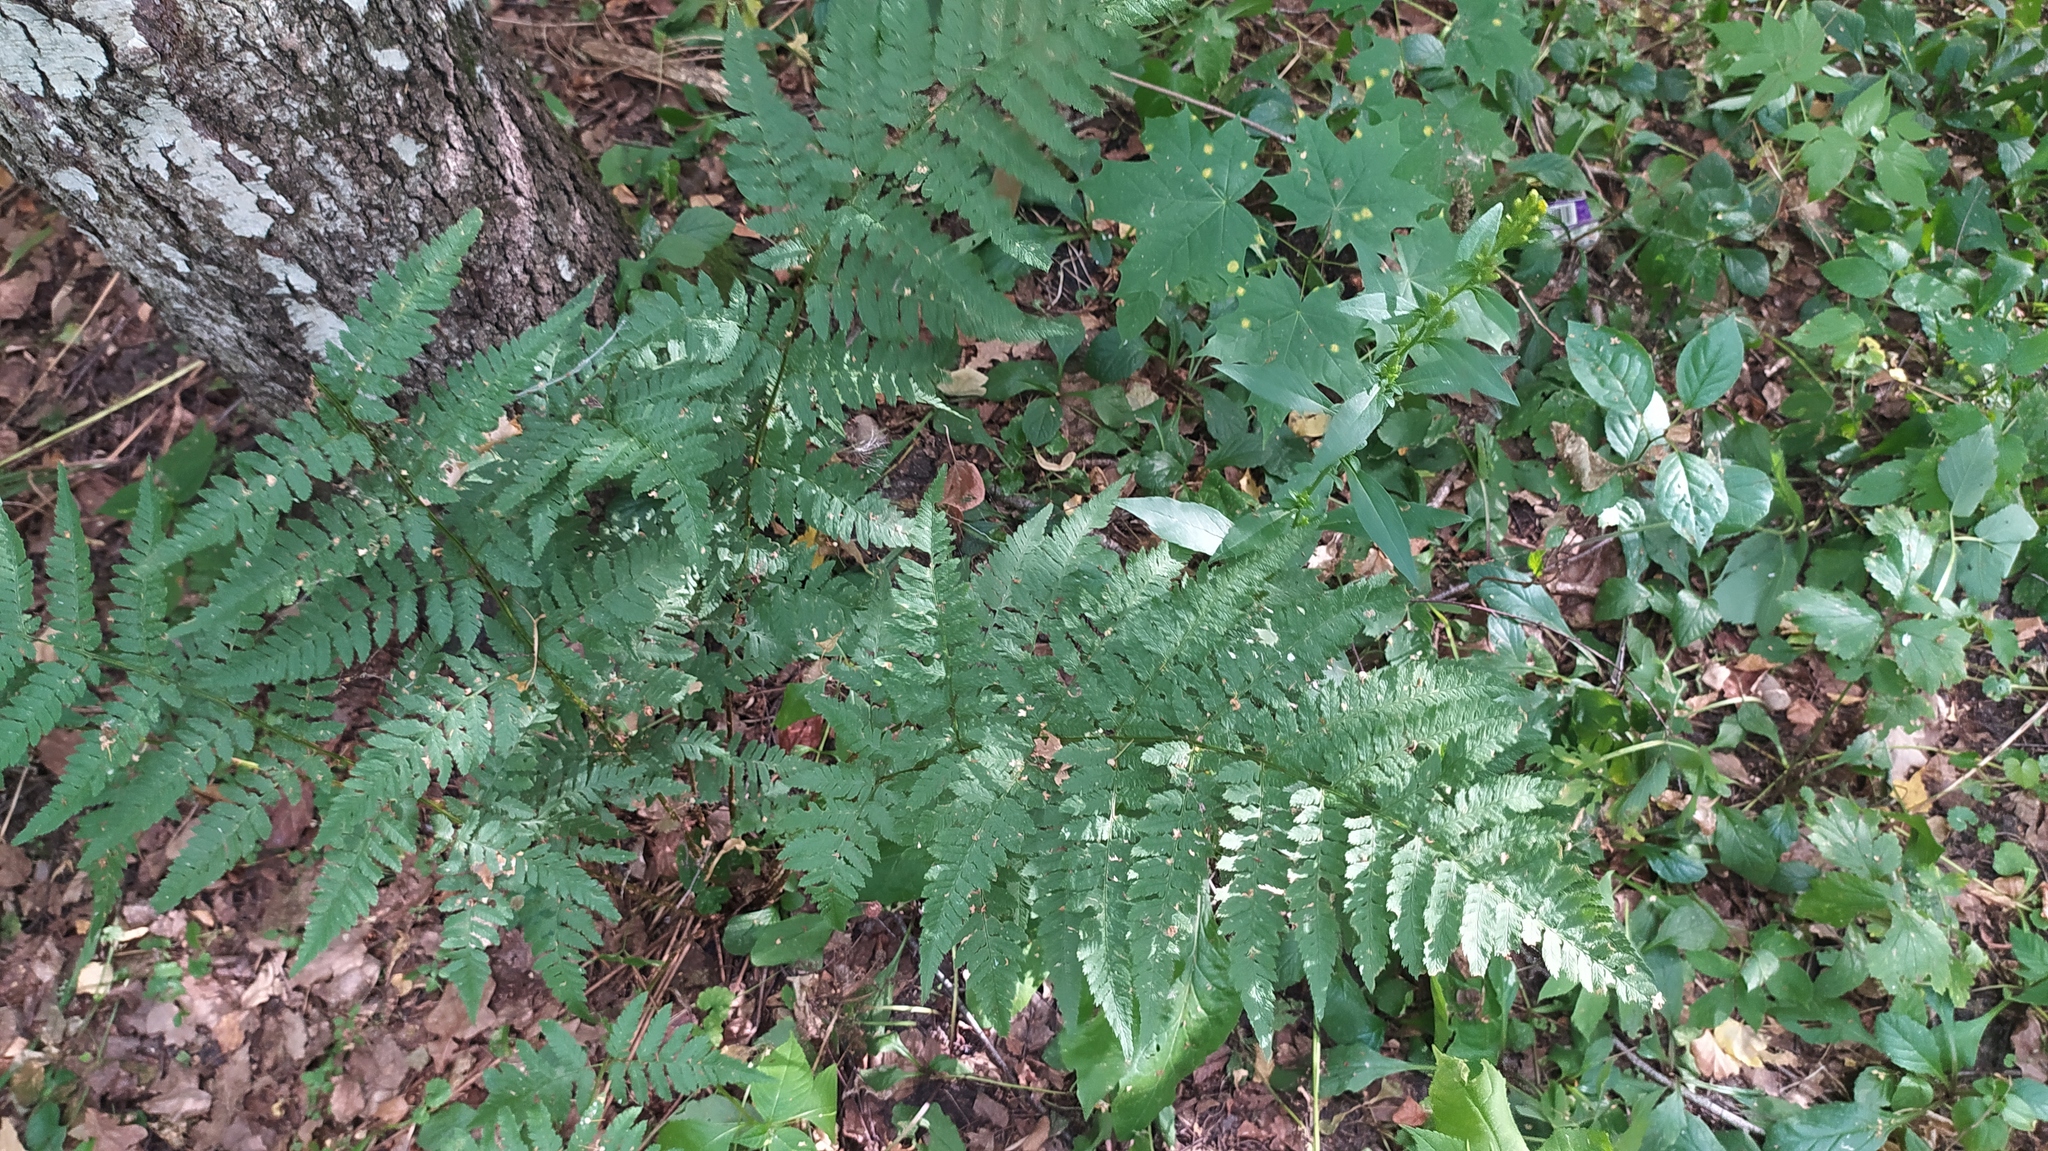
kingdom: Plantae
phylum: Tracheophyta
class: Polypodiopsida
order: Polypodiales
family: Dryopteridaceae
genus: Dryopteris
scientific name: Dryopteris carthusiana
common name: Narrow buckler-fern
